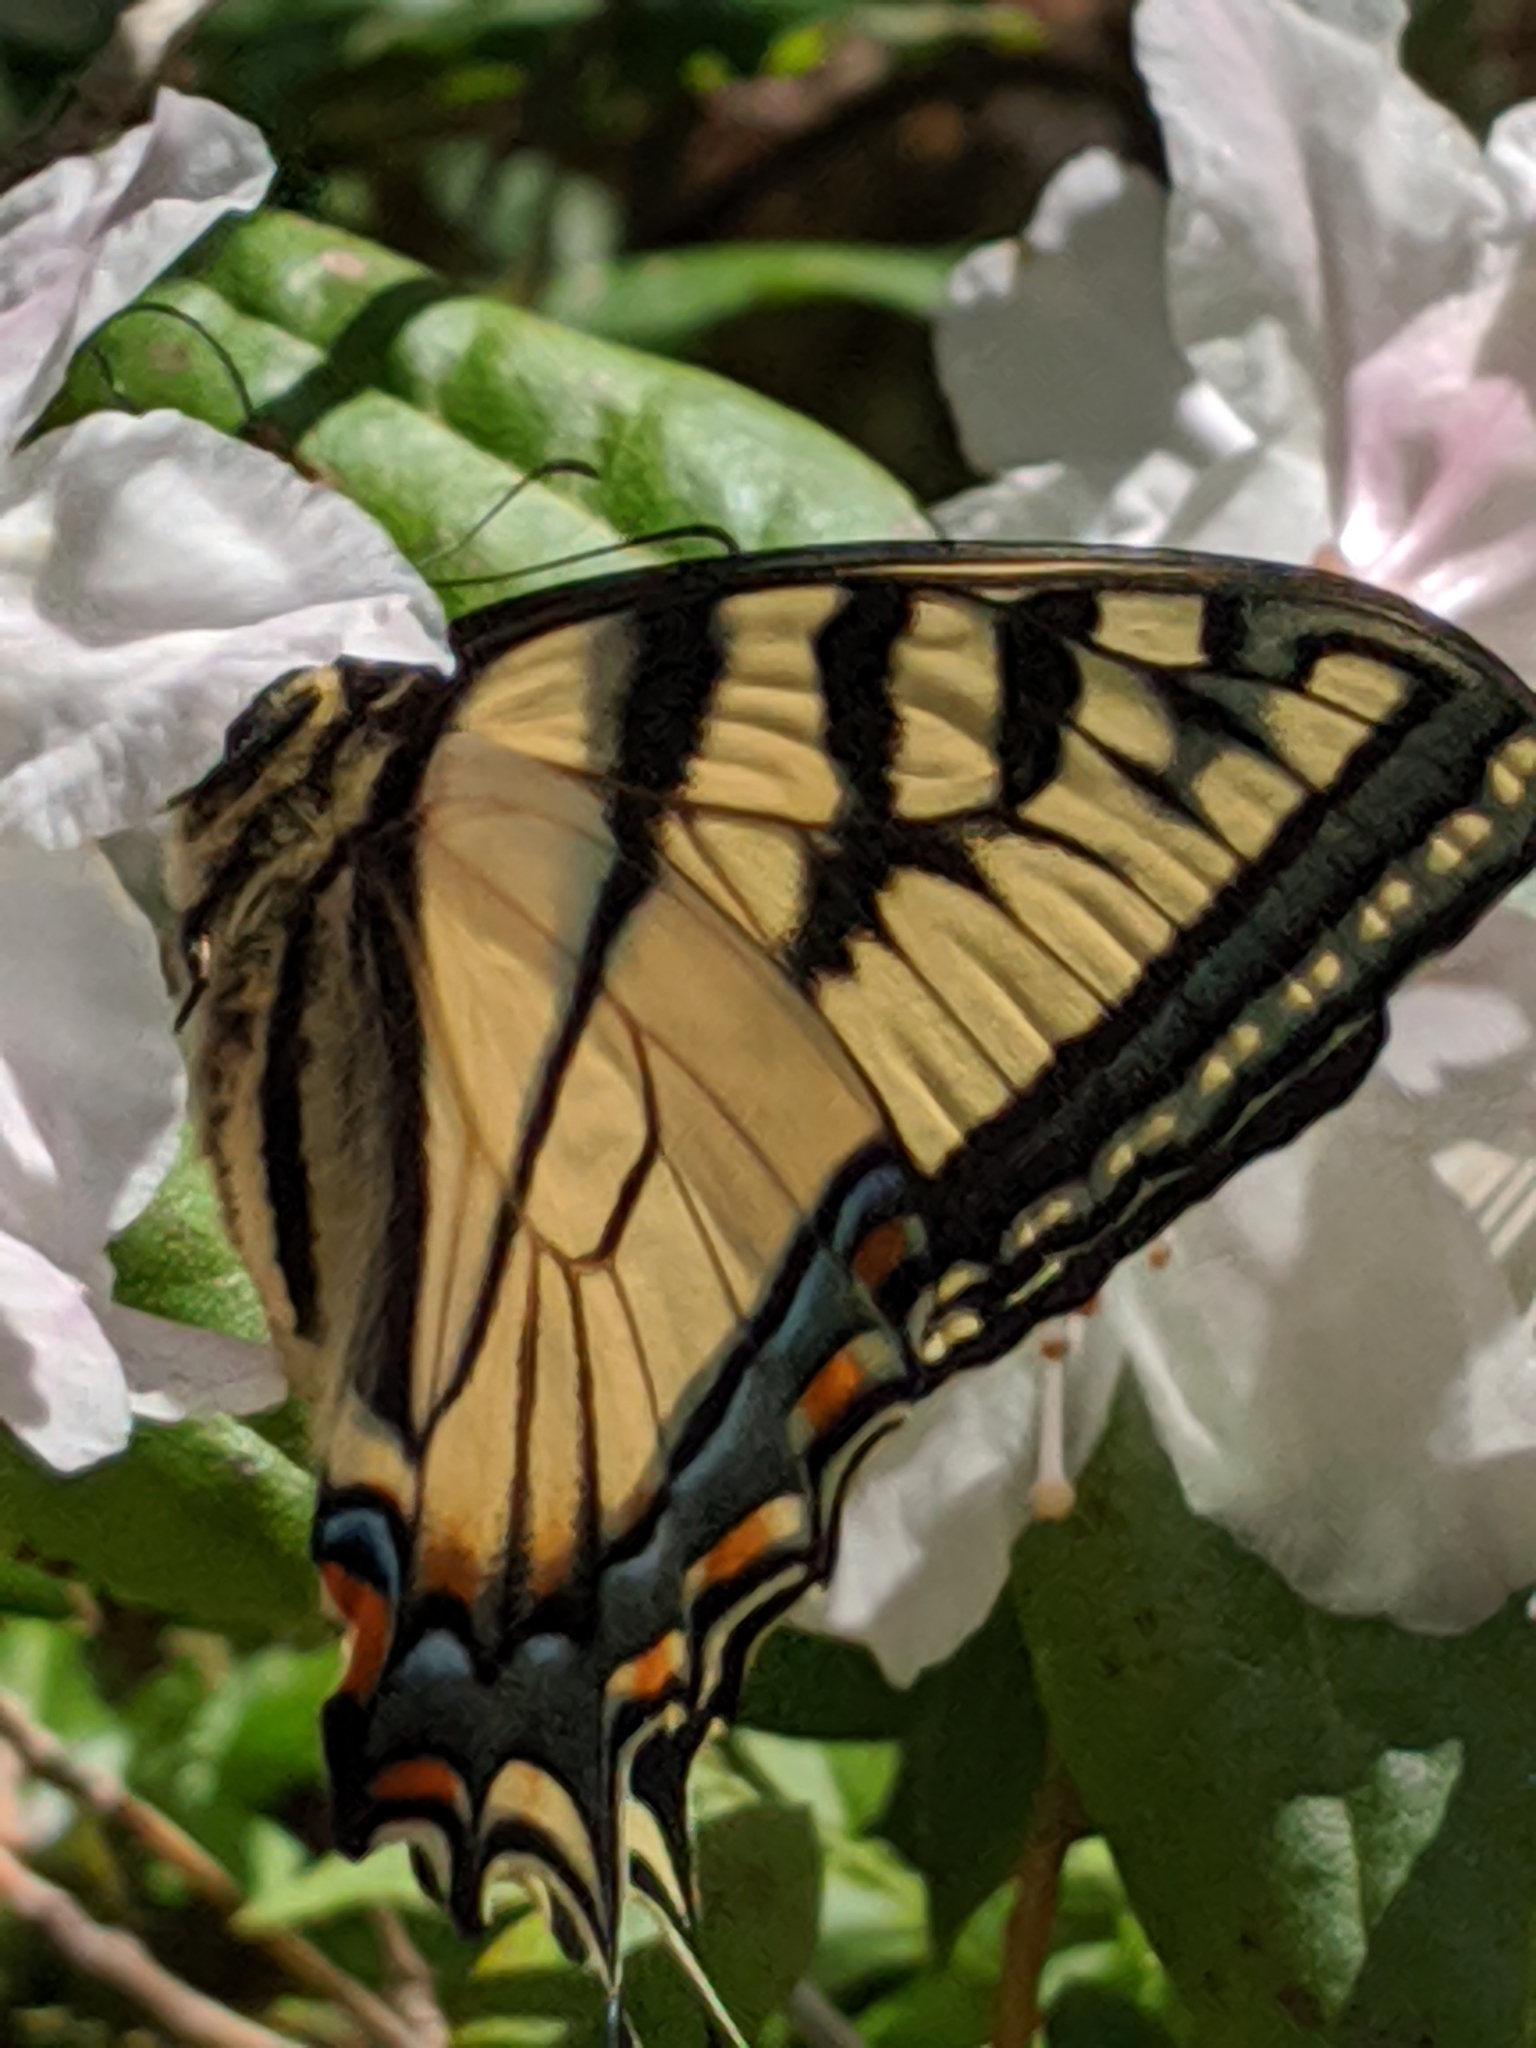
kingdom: Animalia
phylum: Arthropoda
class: Insecta
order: Lepidoptera
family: Papilionidae
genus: Papilio
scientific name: Papilio canadensis
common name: Canadian tiger swallowtail
